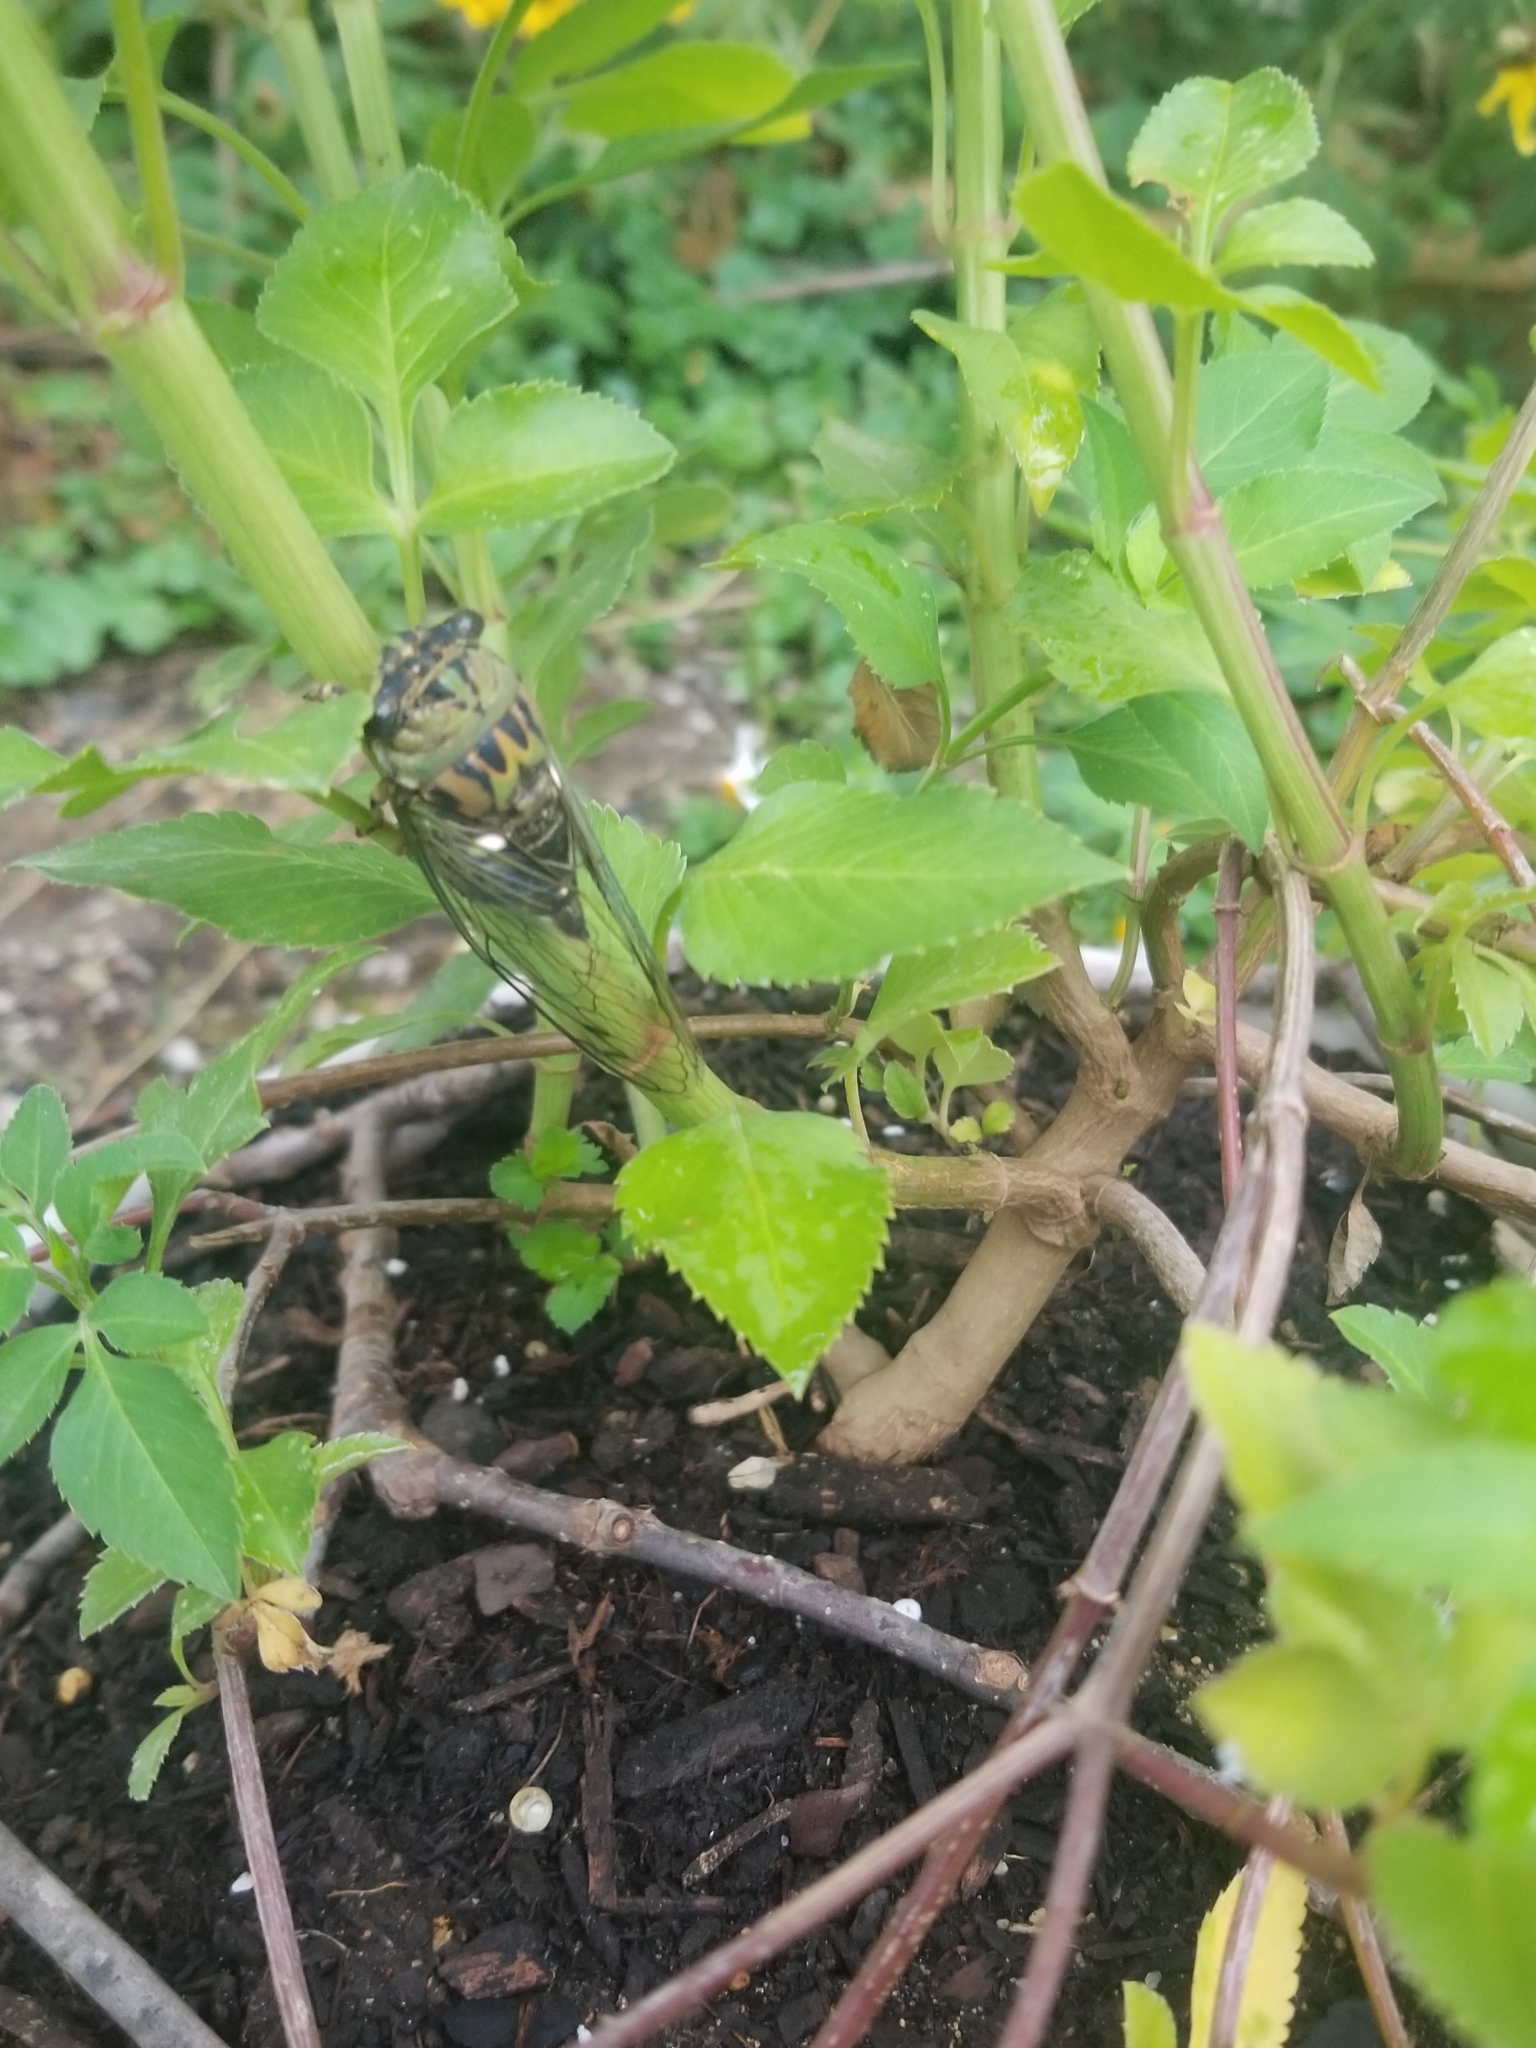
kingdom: Animalia
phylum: Arthropoda
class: Insecta
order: Hemiptera
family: Cicadidae
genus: Neotibicen
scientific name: Neotibicen pruinosus
